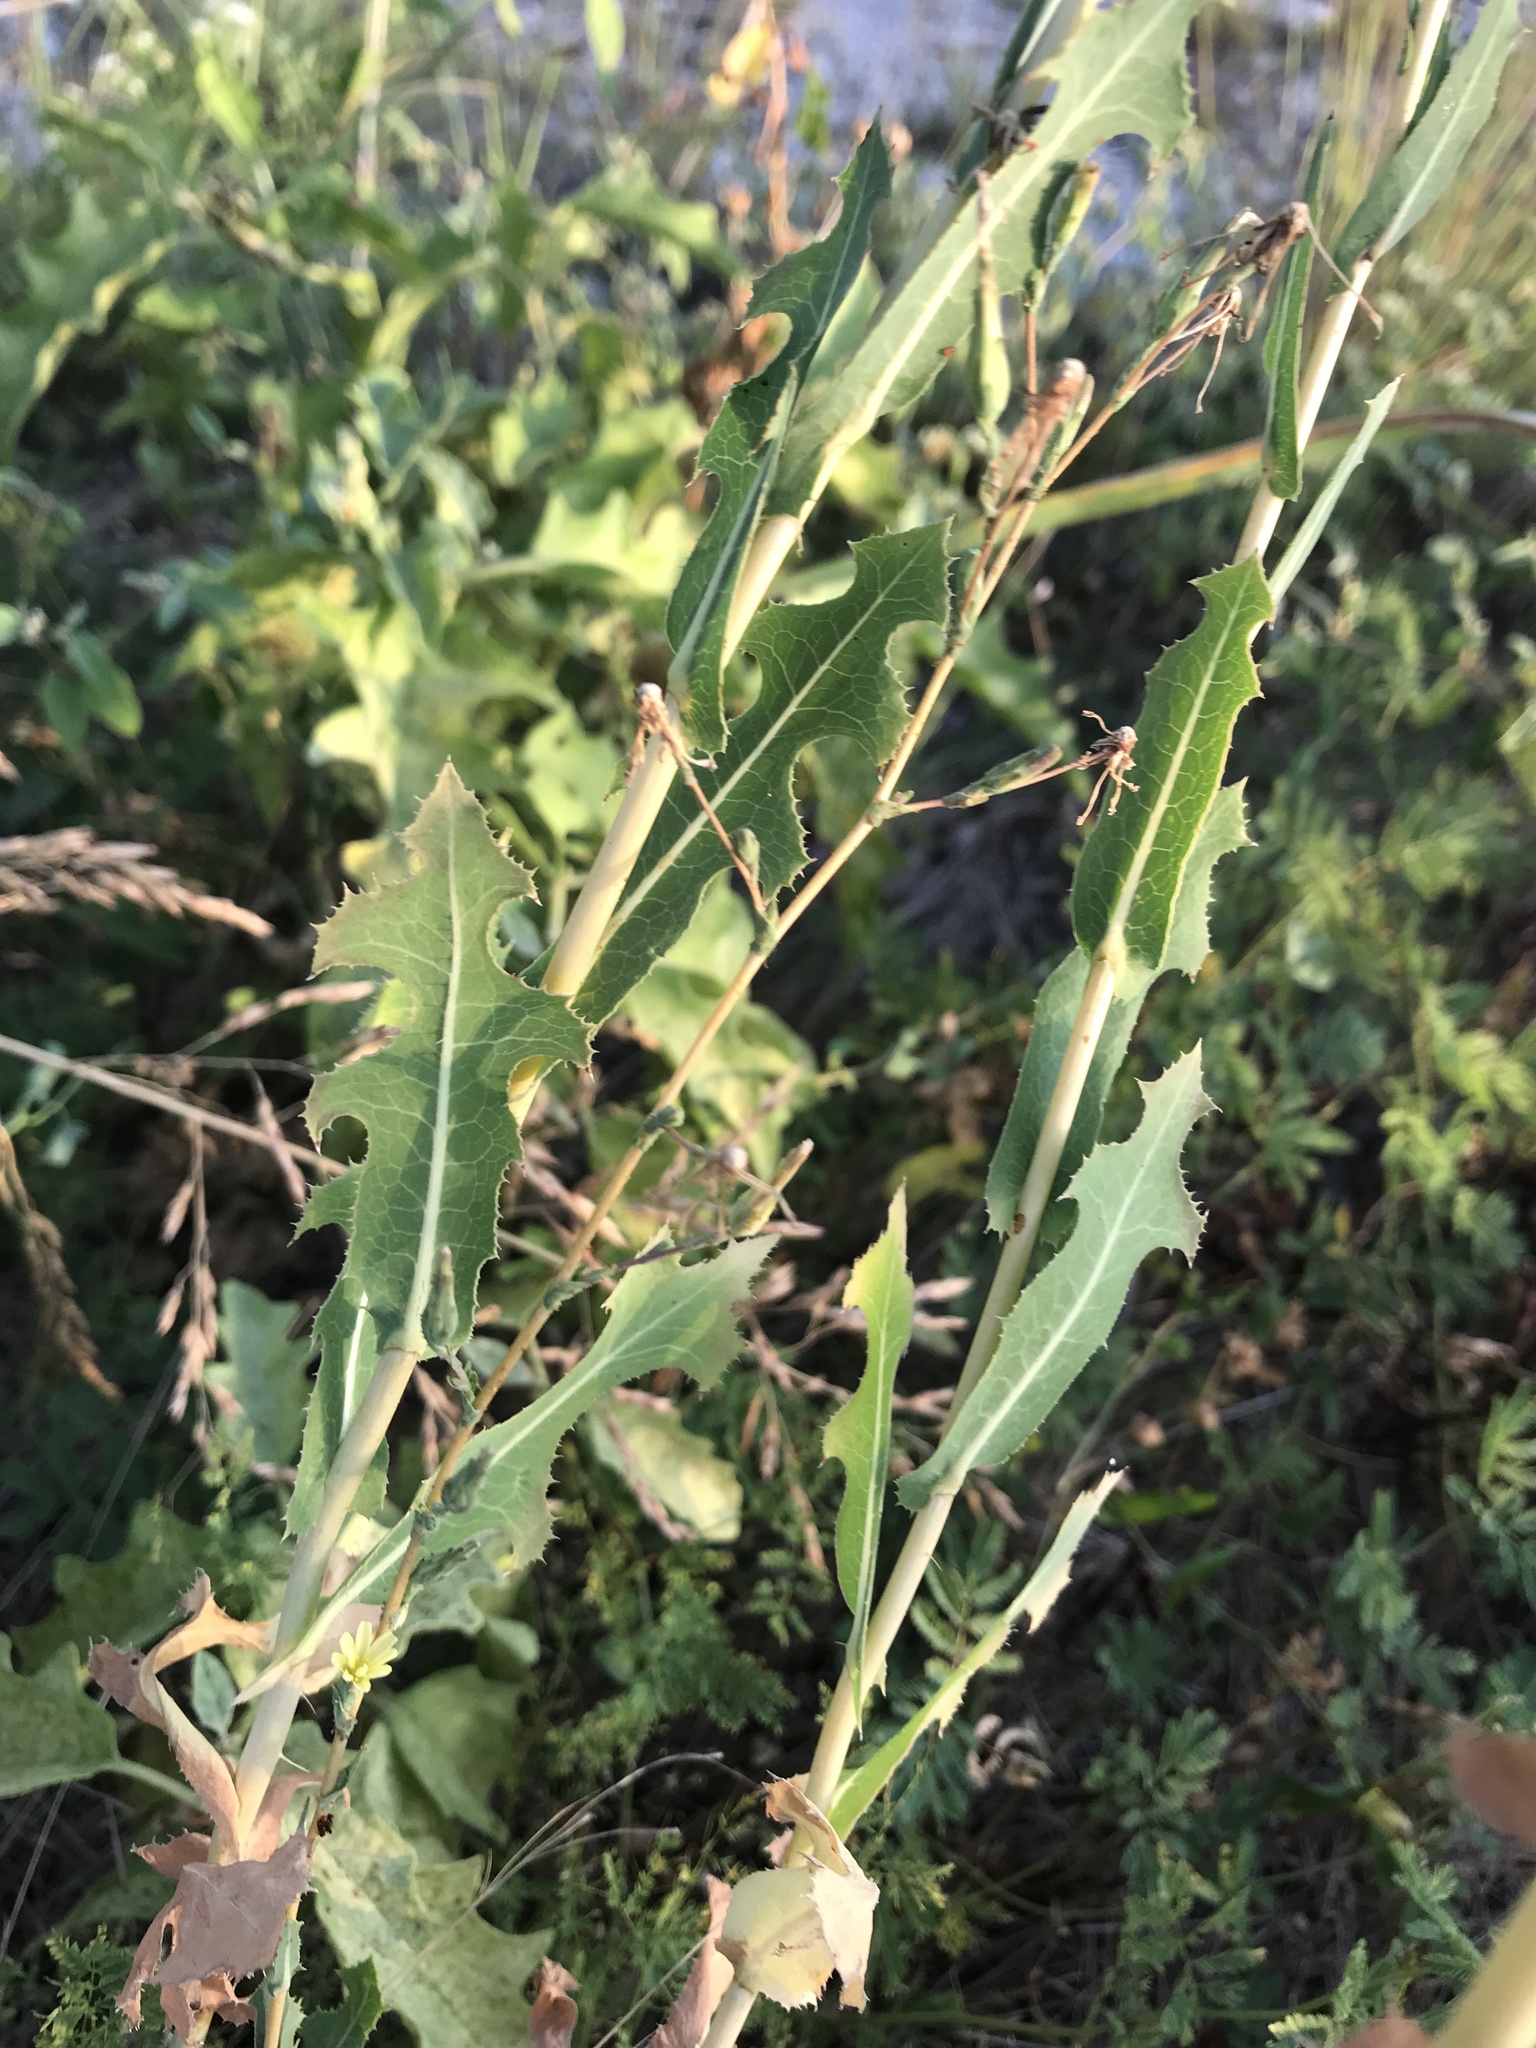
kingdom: Plantae
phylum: Tracheophyta
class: Magnoliopsida
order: Asterales
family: Asteraceae
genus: Lactuca
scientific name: Lactuca serriola
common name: Prickly lettuce
